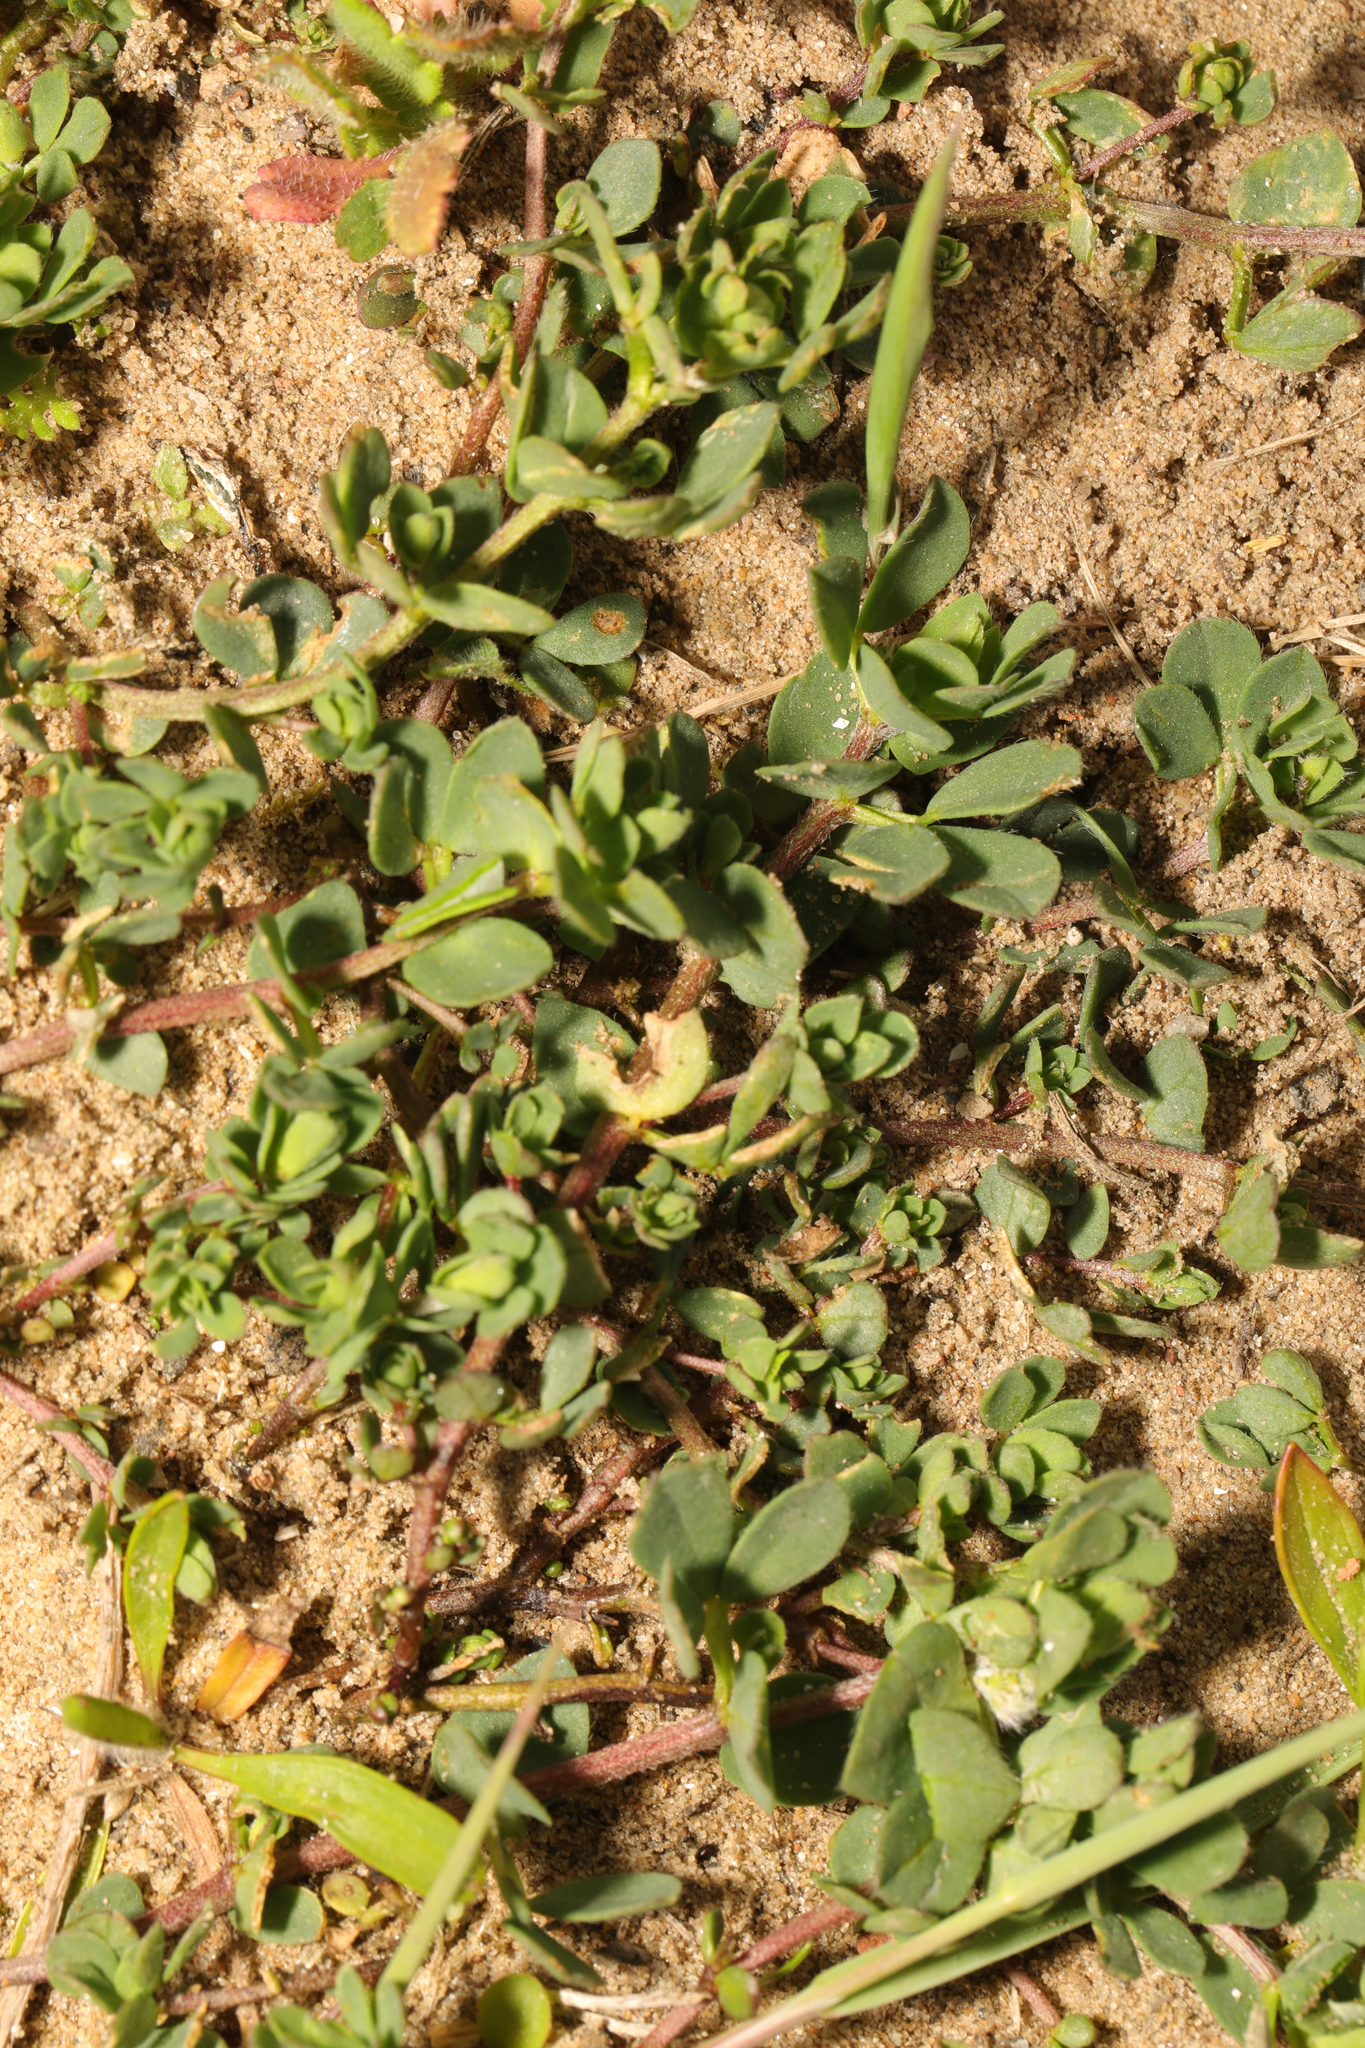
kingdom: Plantae
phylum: Tracheophyta
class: Magnoliopsida
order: Fabales
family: Fabaceae
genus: Lotus
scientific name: Lotus corniculatus
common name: Common bird's-foot-trefoil
